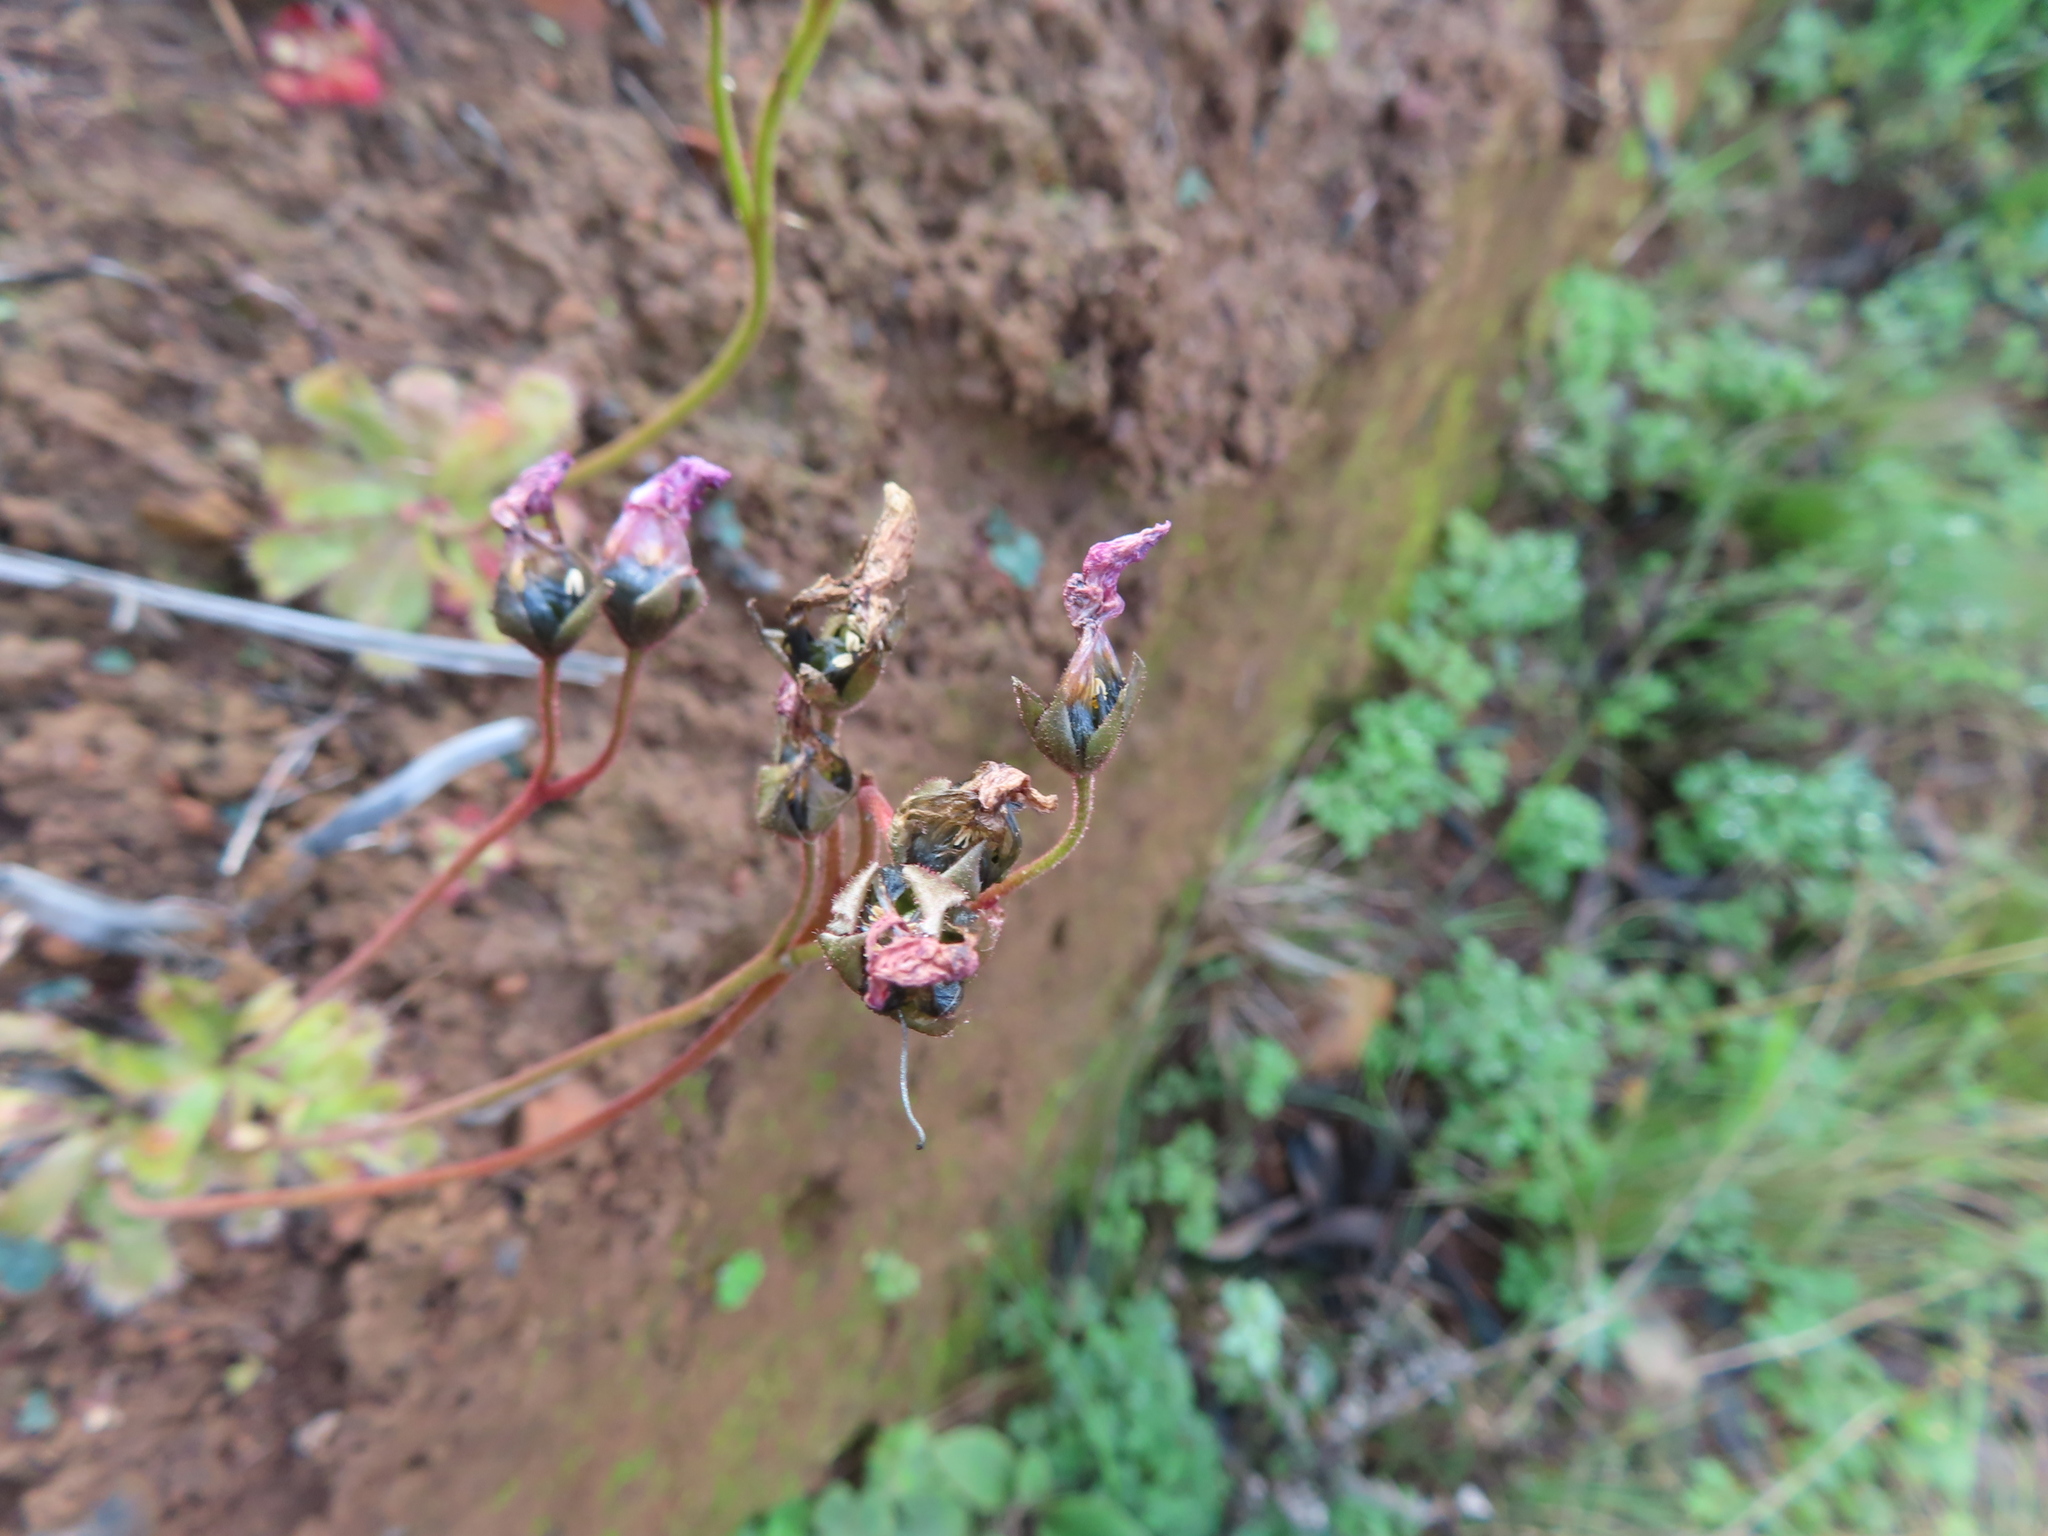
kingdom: Plantae
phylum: Tracheophyta
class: Magnoliopsida
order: Caryophyllales
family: Droseraceae
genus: Drosera
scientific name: Drosera pauciflora
